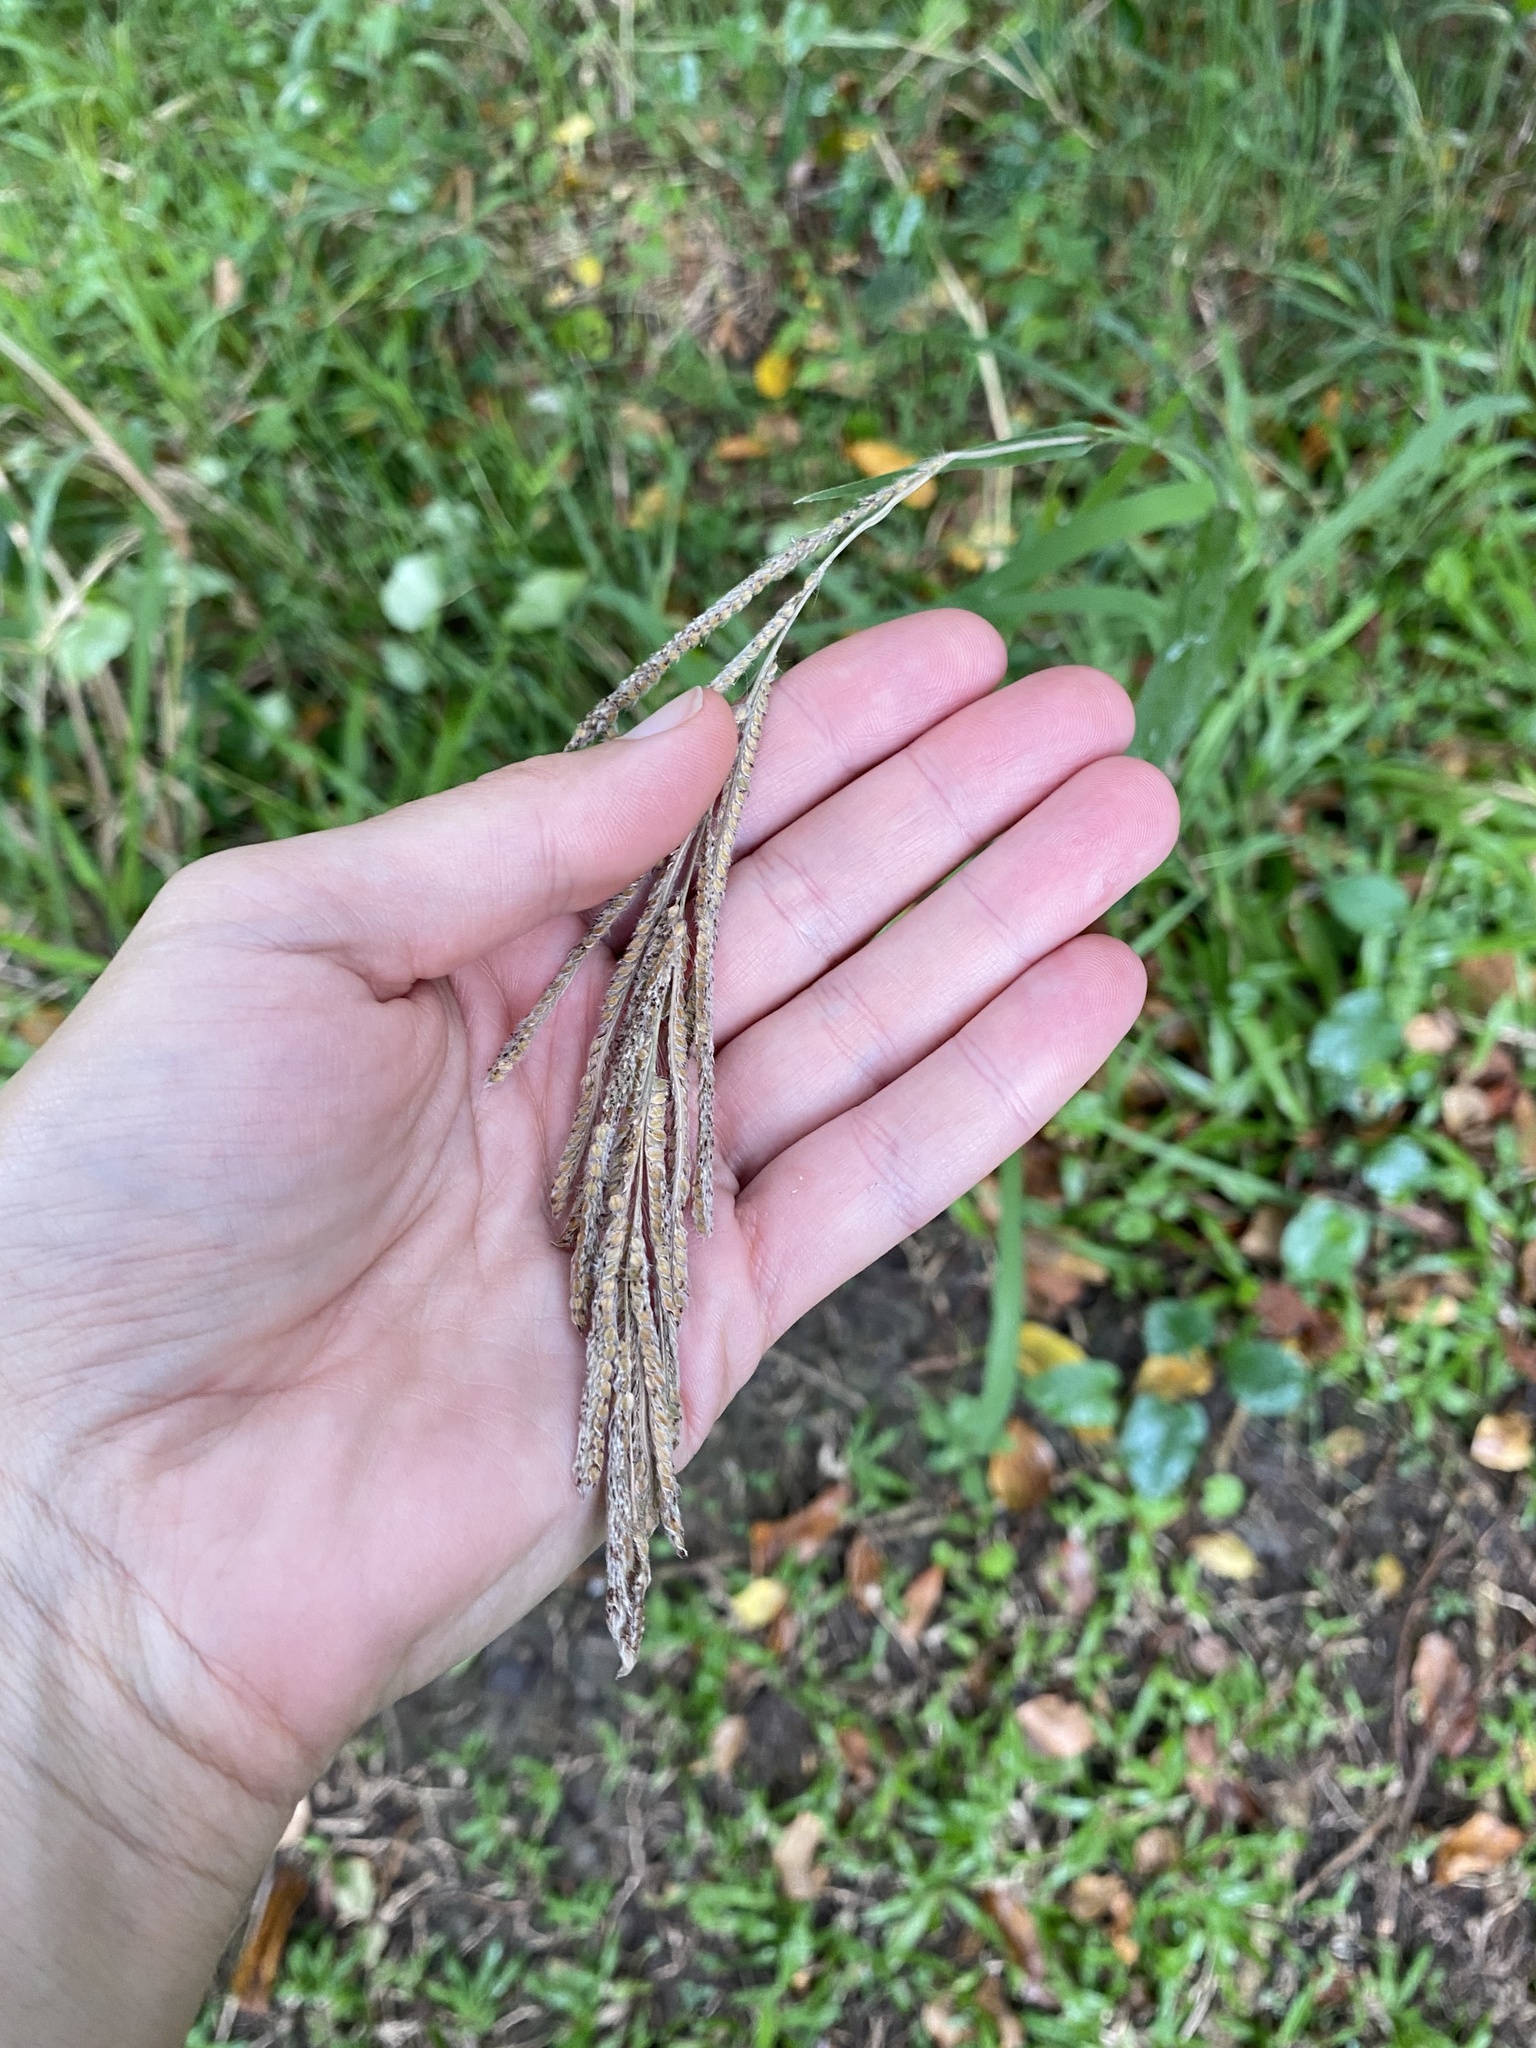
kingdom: Plantae
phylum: Tracheophyta
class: Liliopsida
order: Poales
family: Poaceae
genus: Paspalum
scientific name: Paspalum urvillei
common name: Vasey's grass
